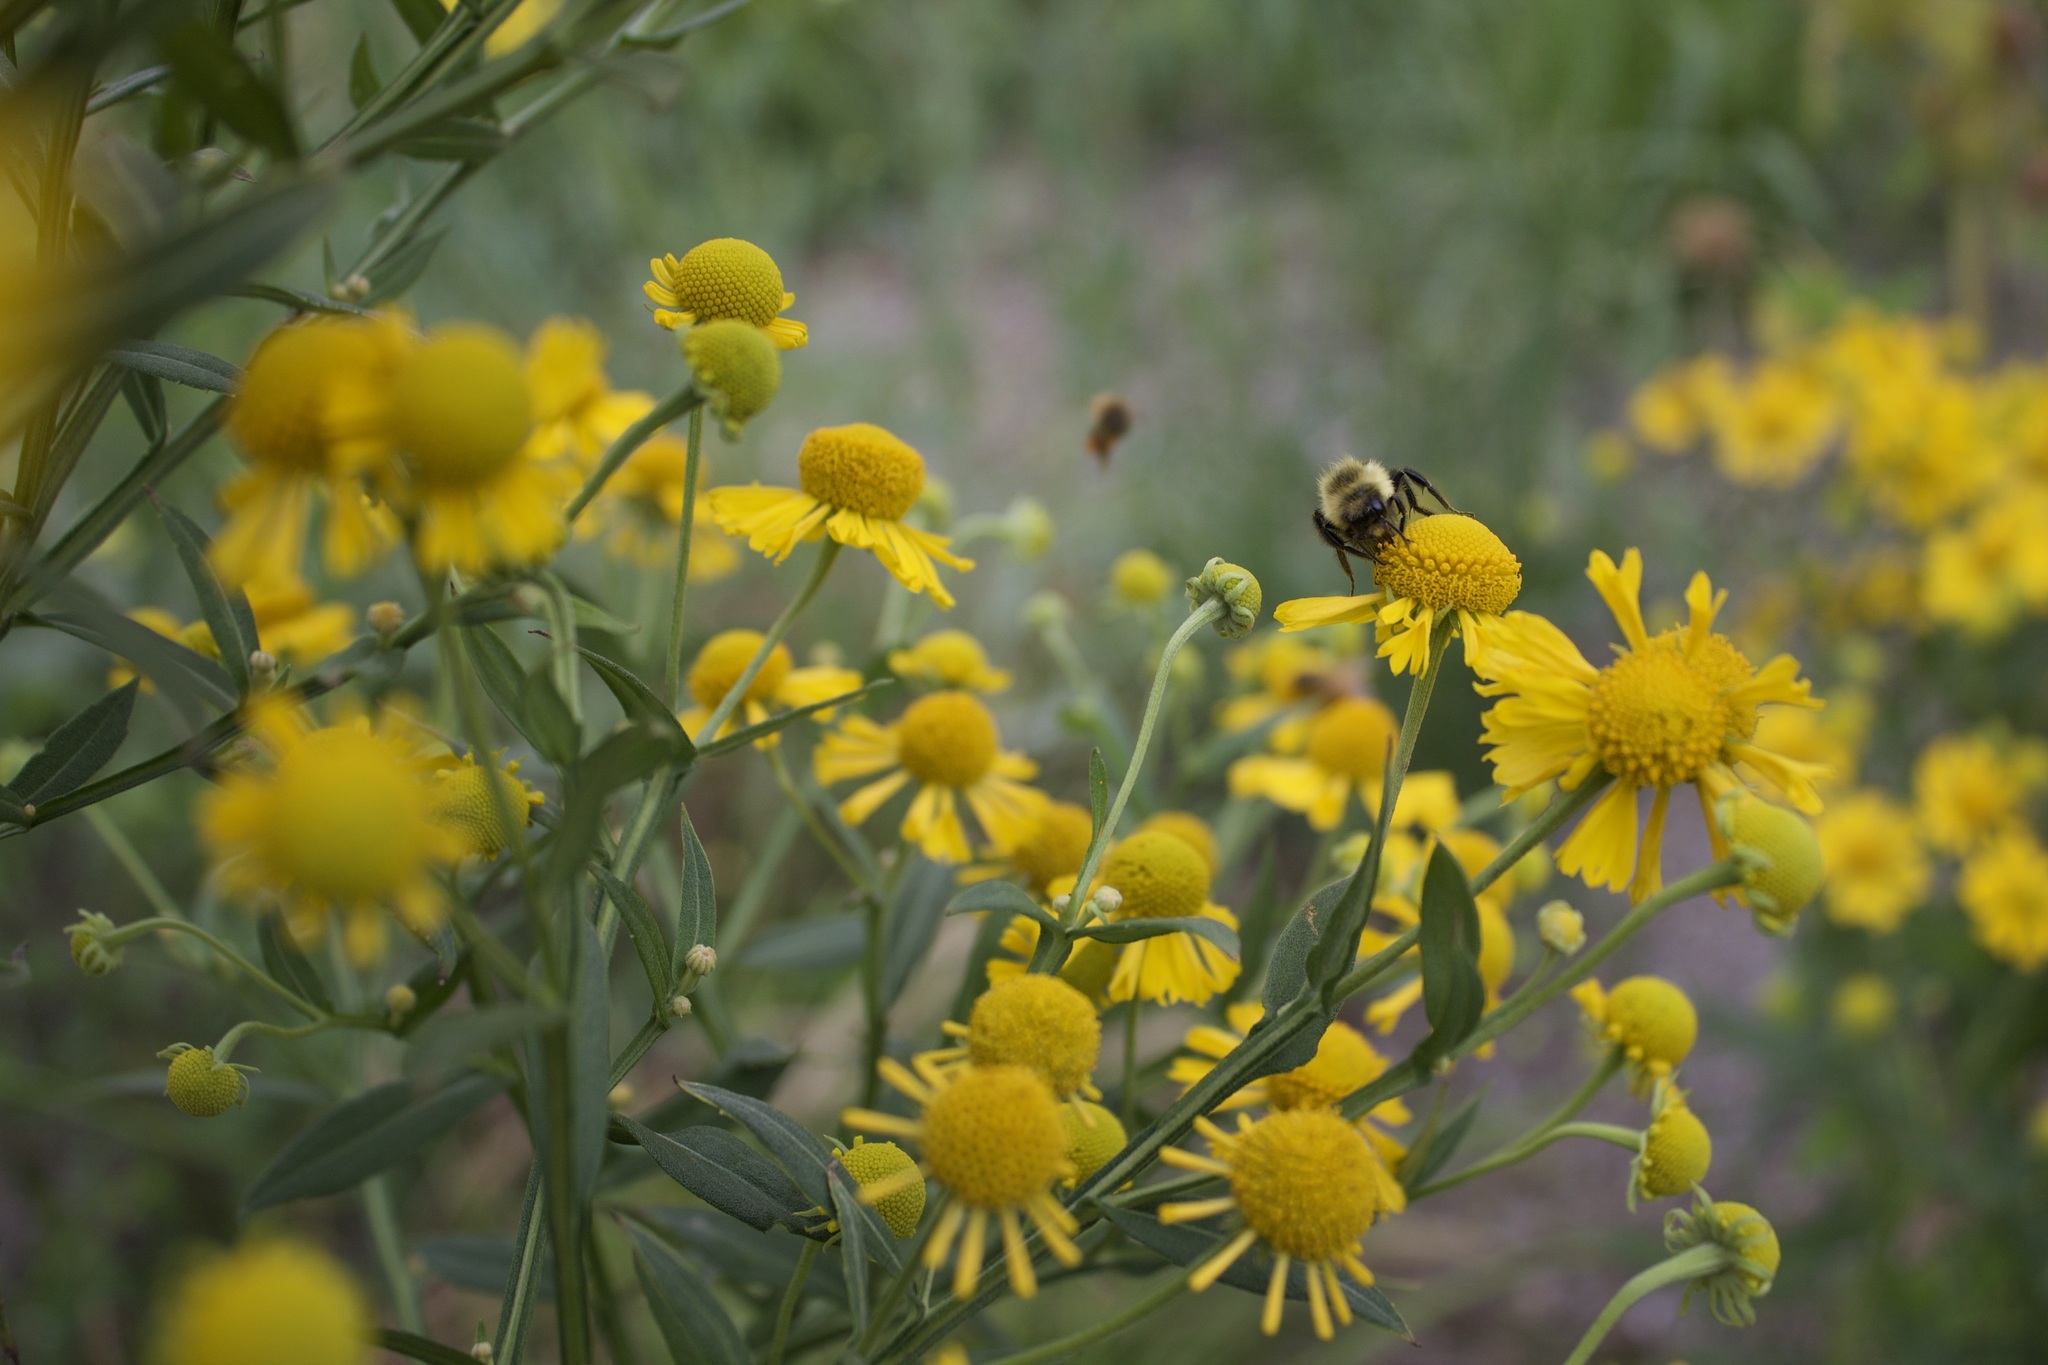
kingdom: Animalia
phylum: Arthropoda
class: Insecta
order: Hymenoptera
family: Apidae
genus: Bombus
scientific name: Bombus impatiens
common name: Common eastern bumble bee
